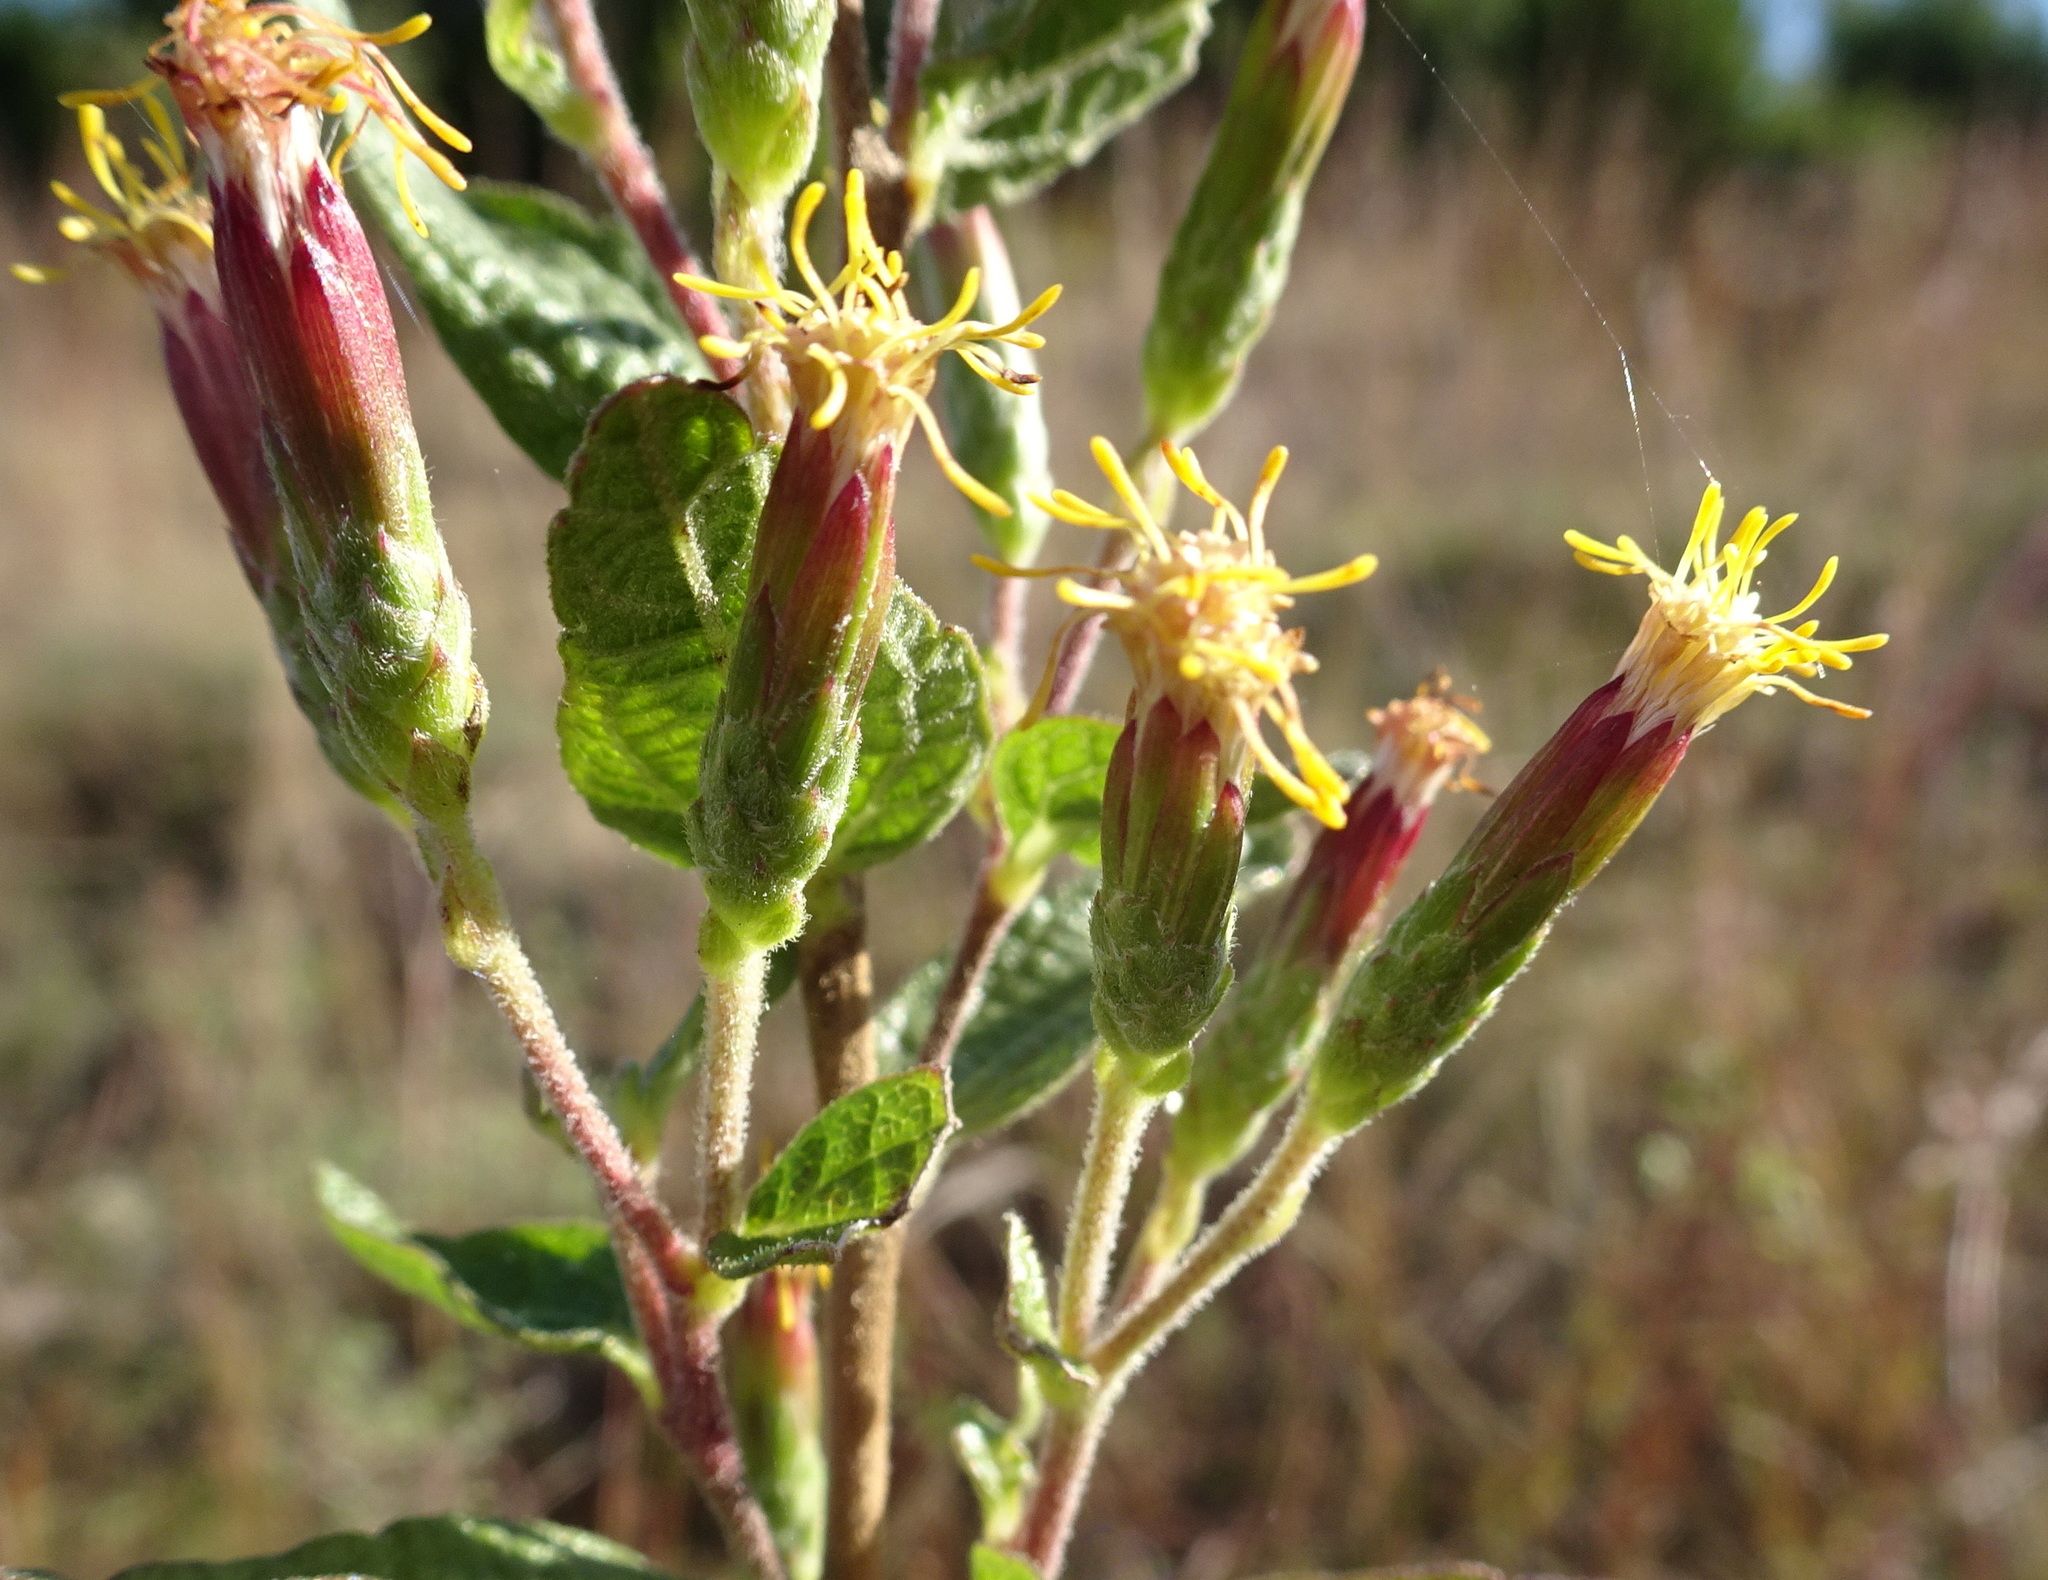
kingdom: Plantae
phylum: Tracheophyta
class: Magnoliopsida
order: Asterales
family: Asteraceae
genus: Brickellia
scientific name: Brickellia cylindracea
